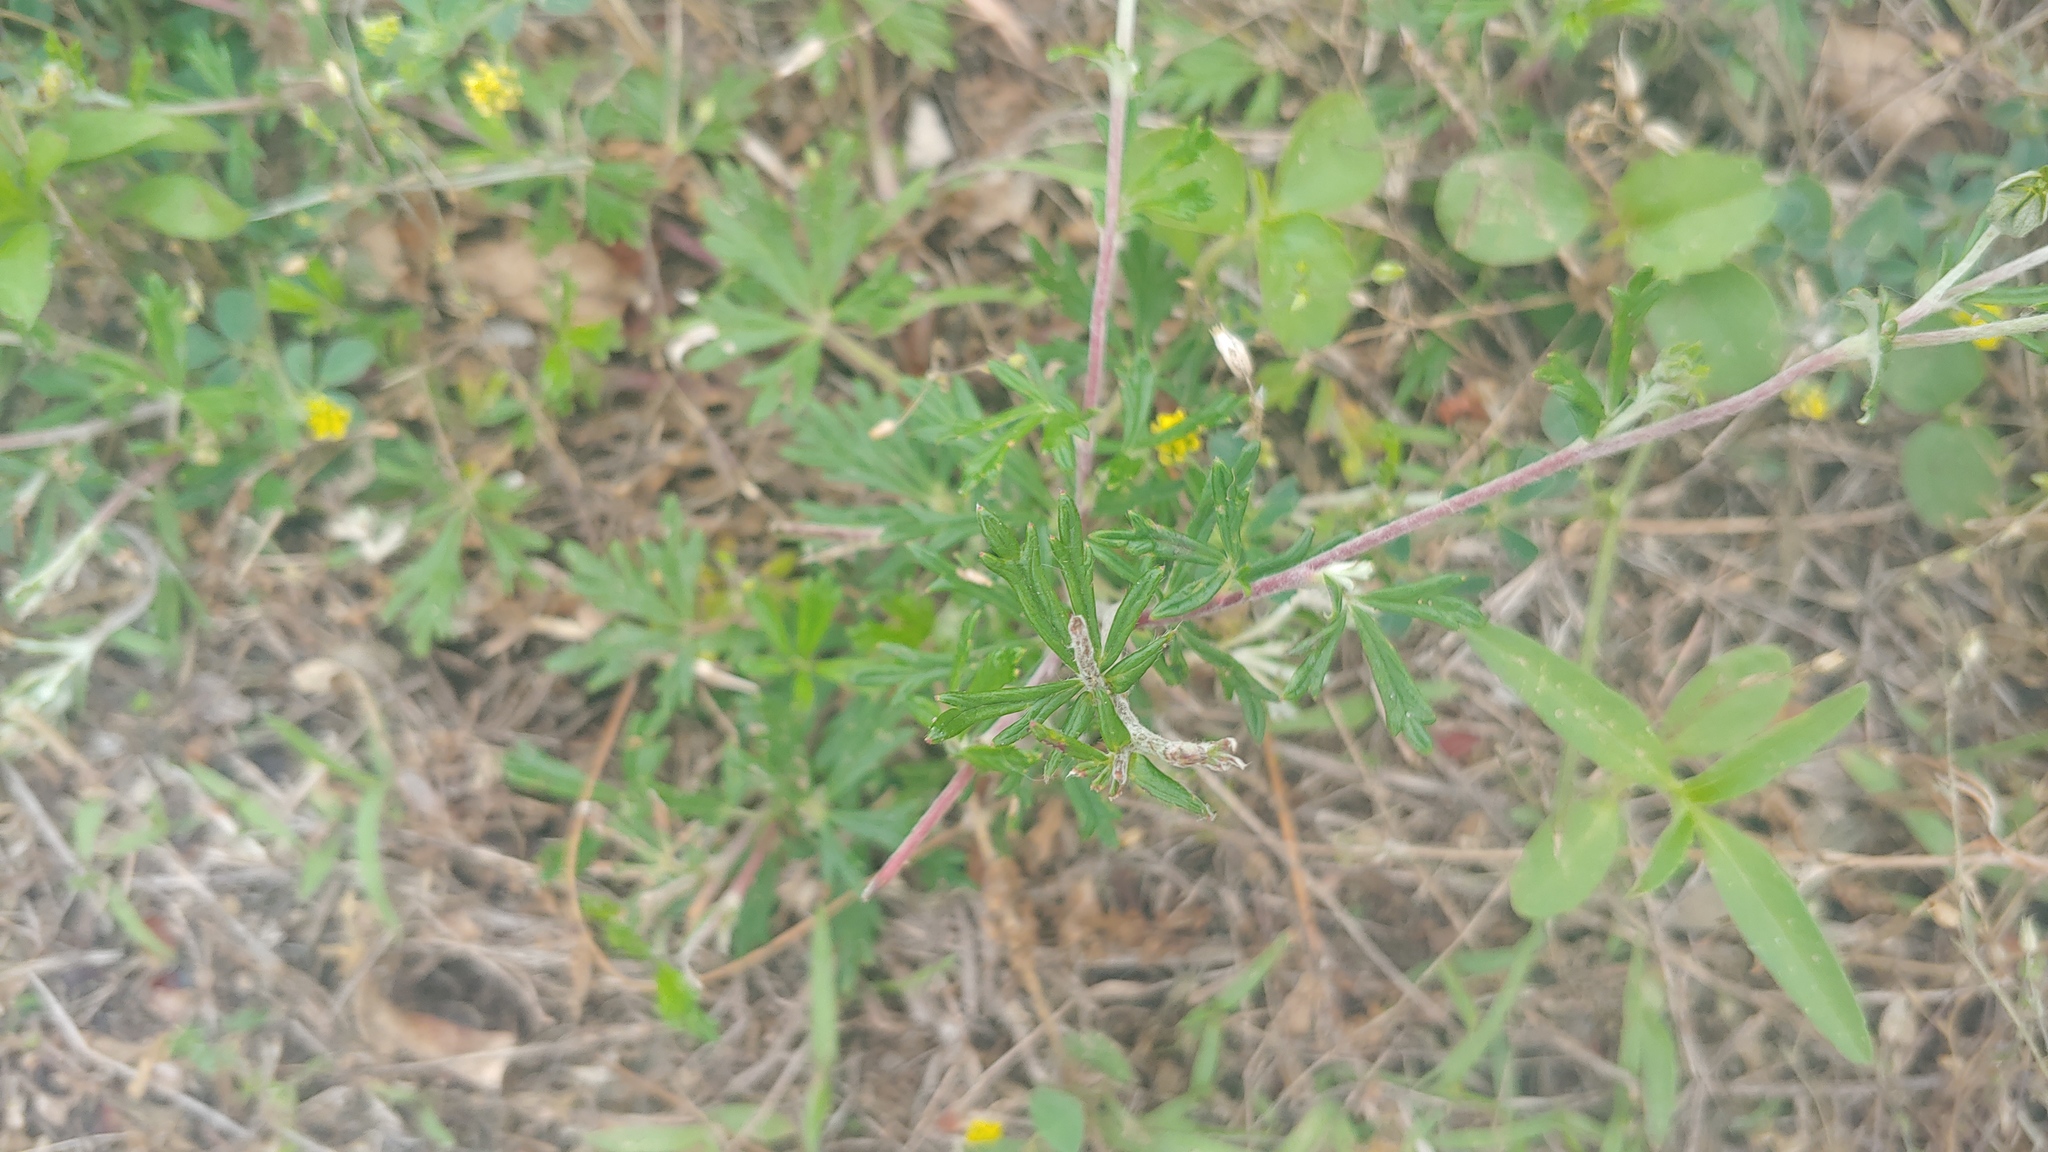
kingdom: Plantae
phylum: Tracheophyta
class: Magnoliopsida
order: Rosales
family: Rosaceae
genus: Potentilla
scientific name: Potentilla argentea
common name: Hoary cinquefoil
